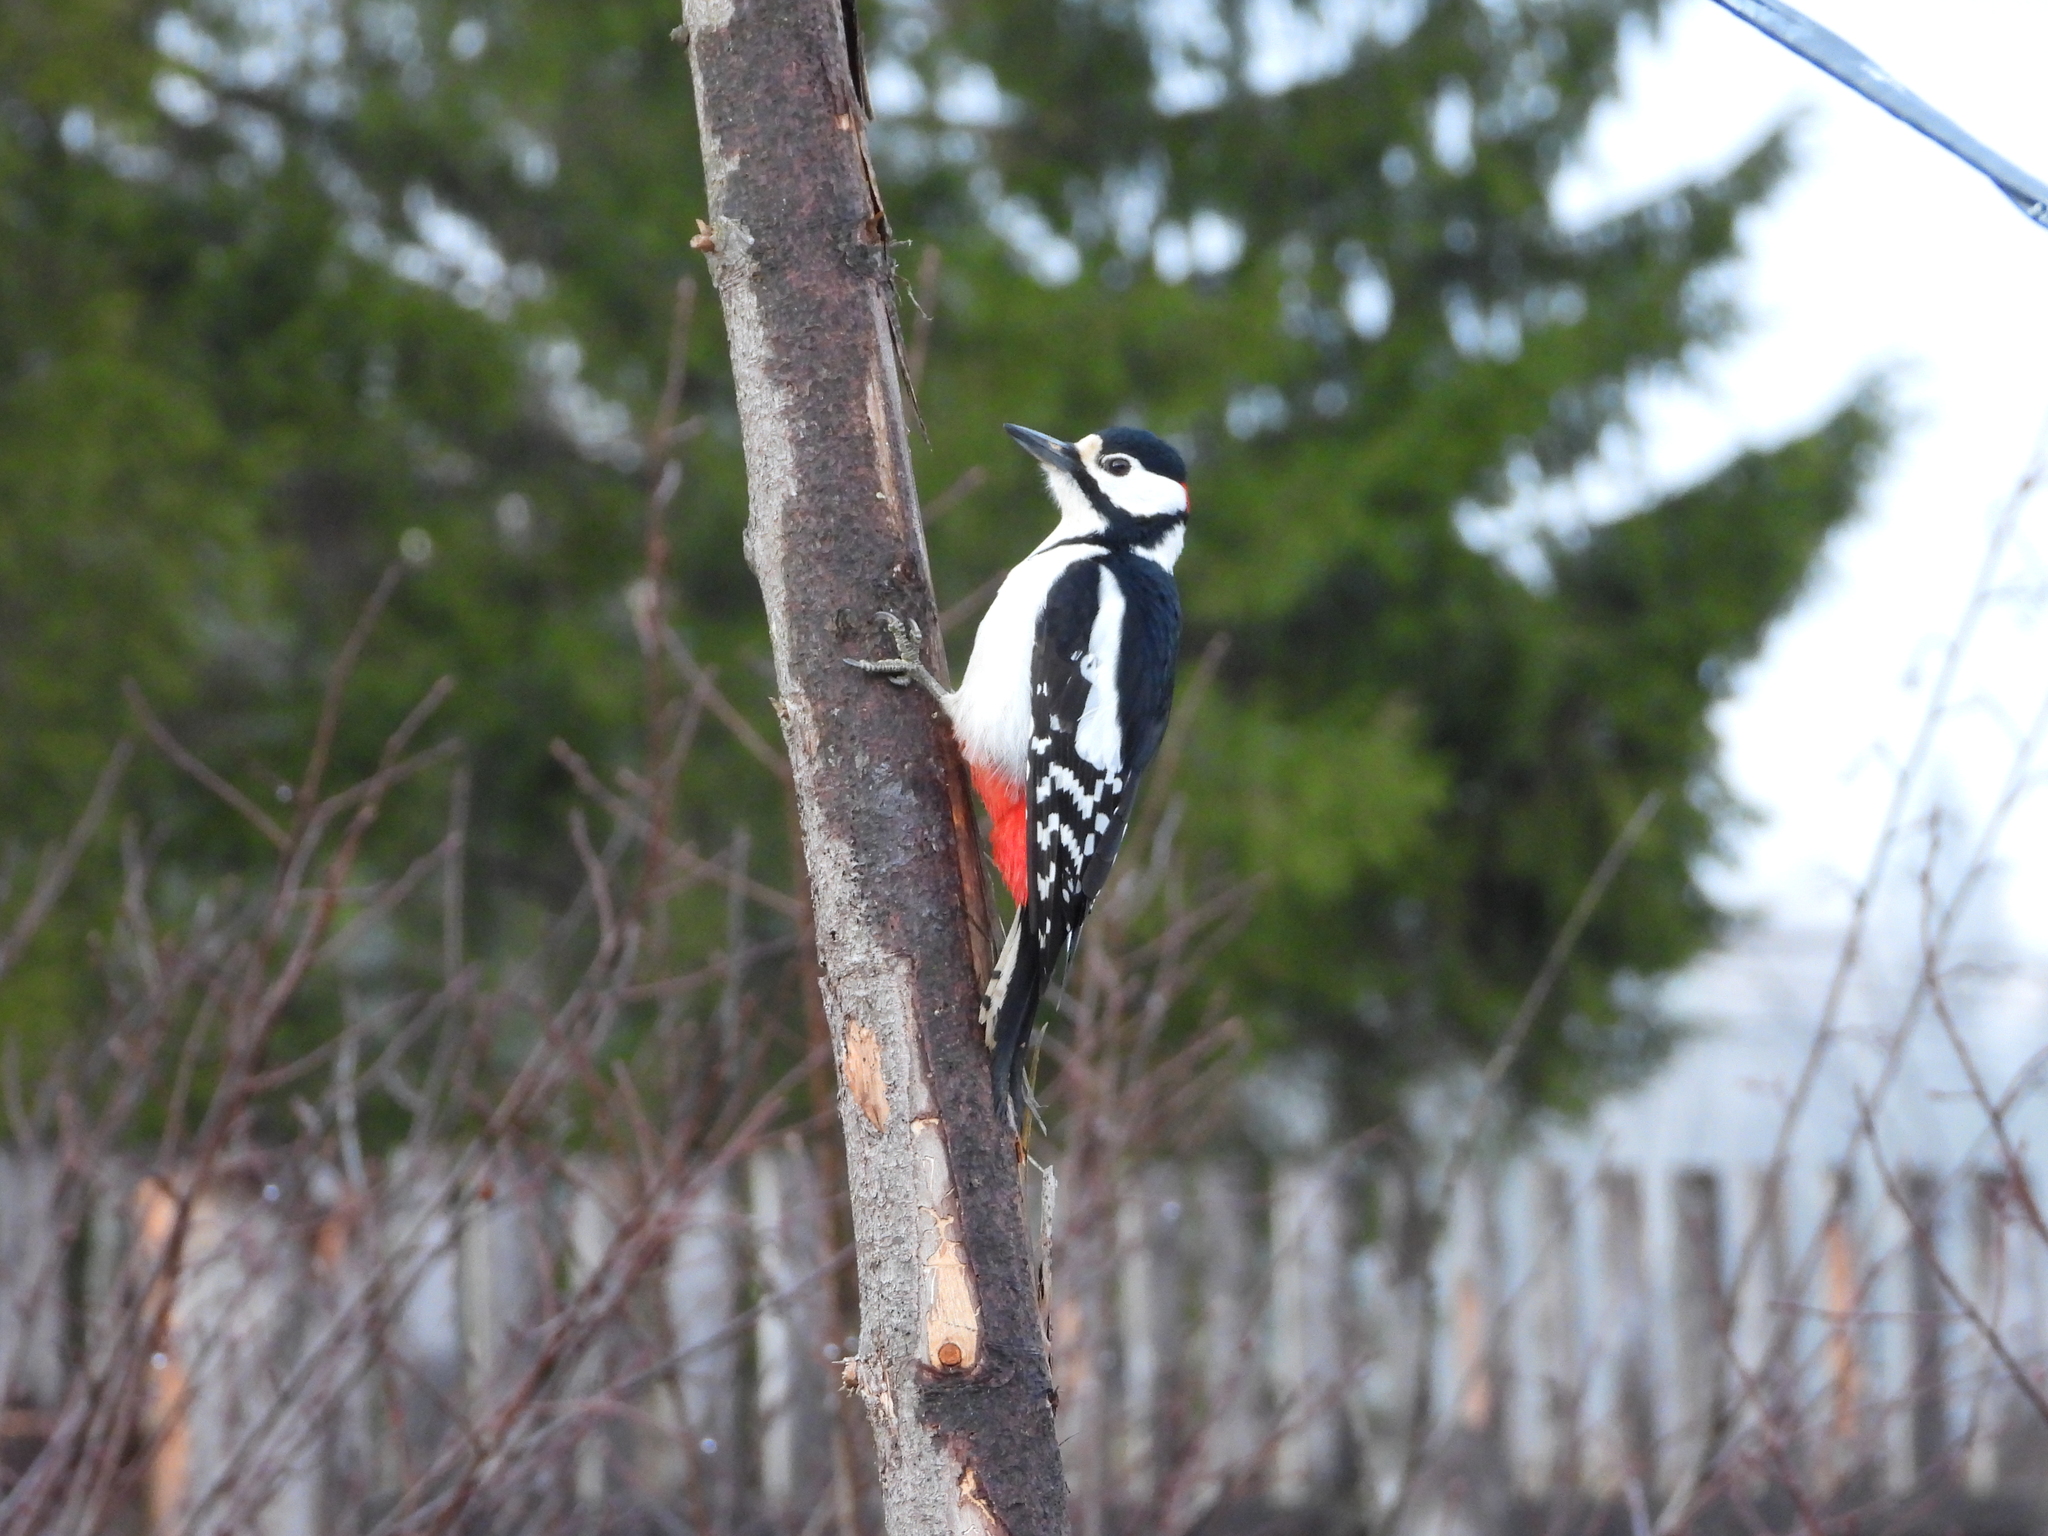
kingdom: Animalia
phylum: Chordata
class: Aves
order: Piciformes
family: Picidae
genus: Dendrocopos
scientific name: Dendrocopos major
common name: Great spotted woodpecker
